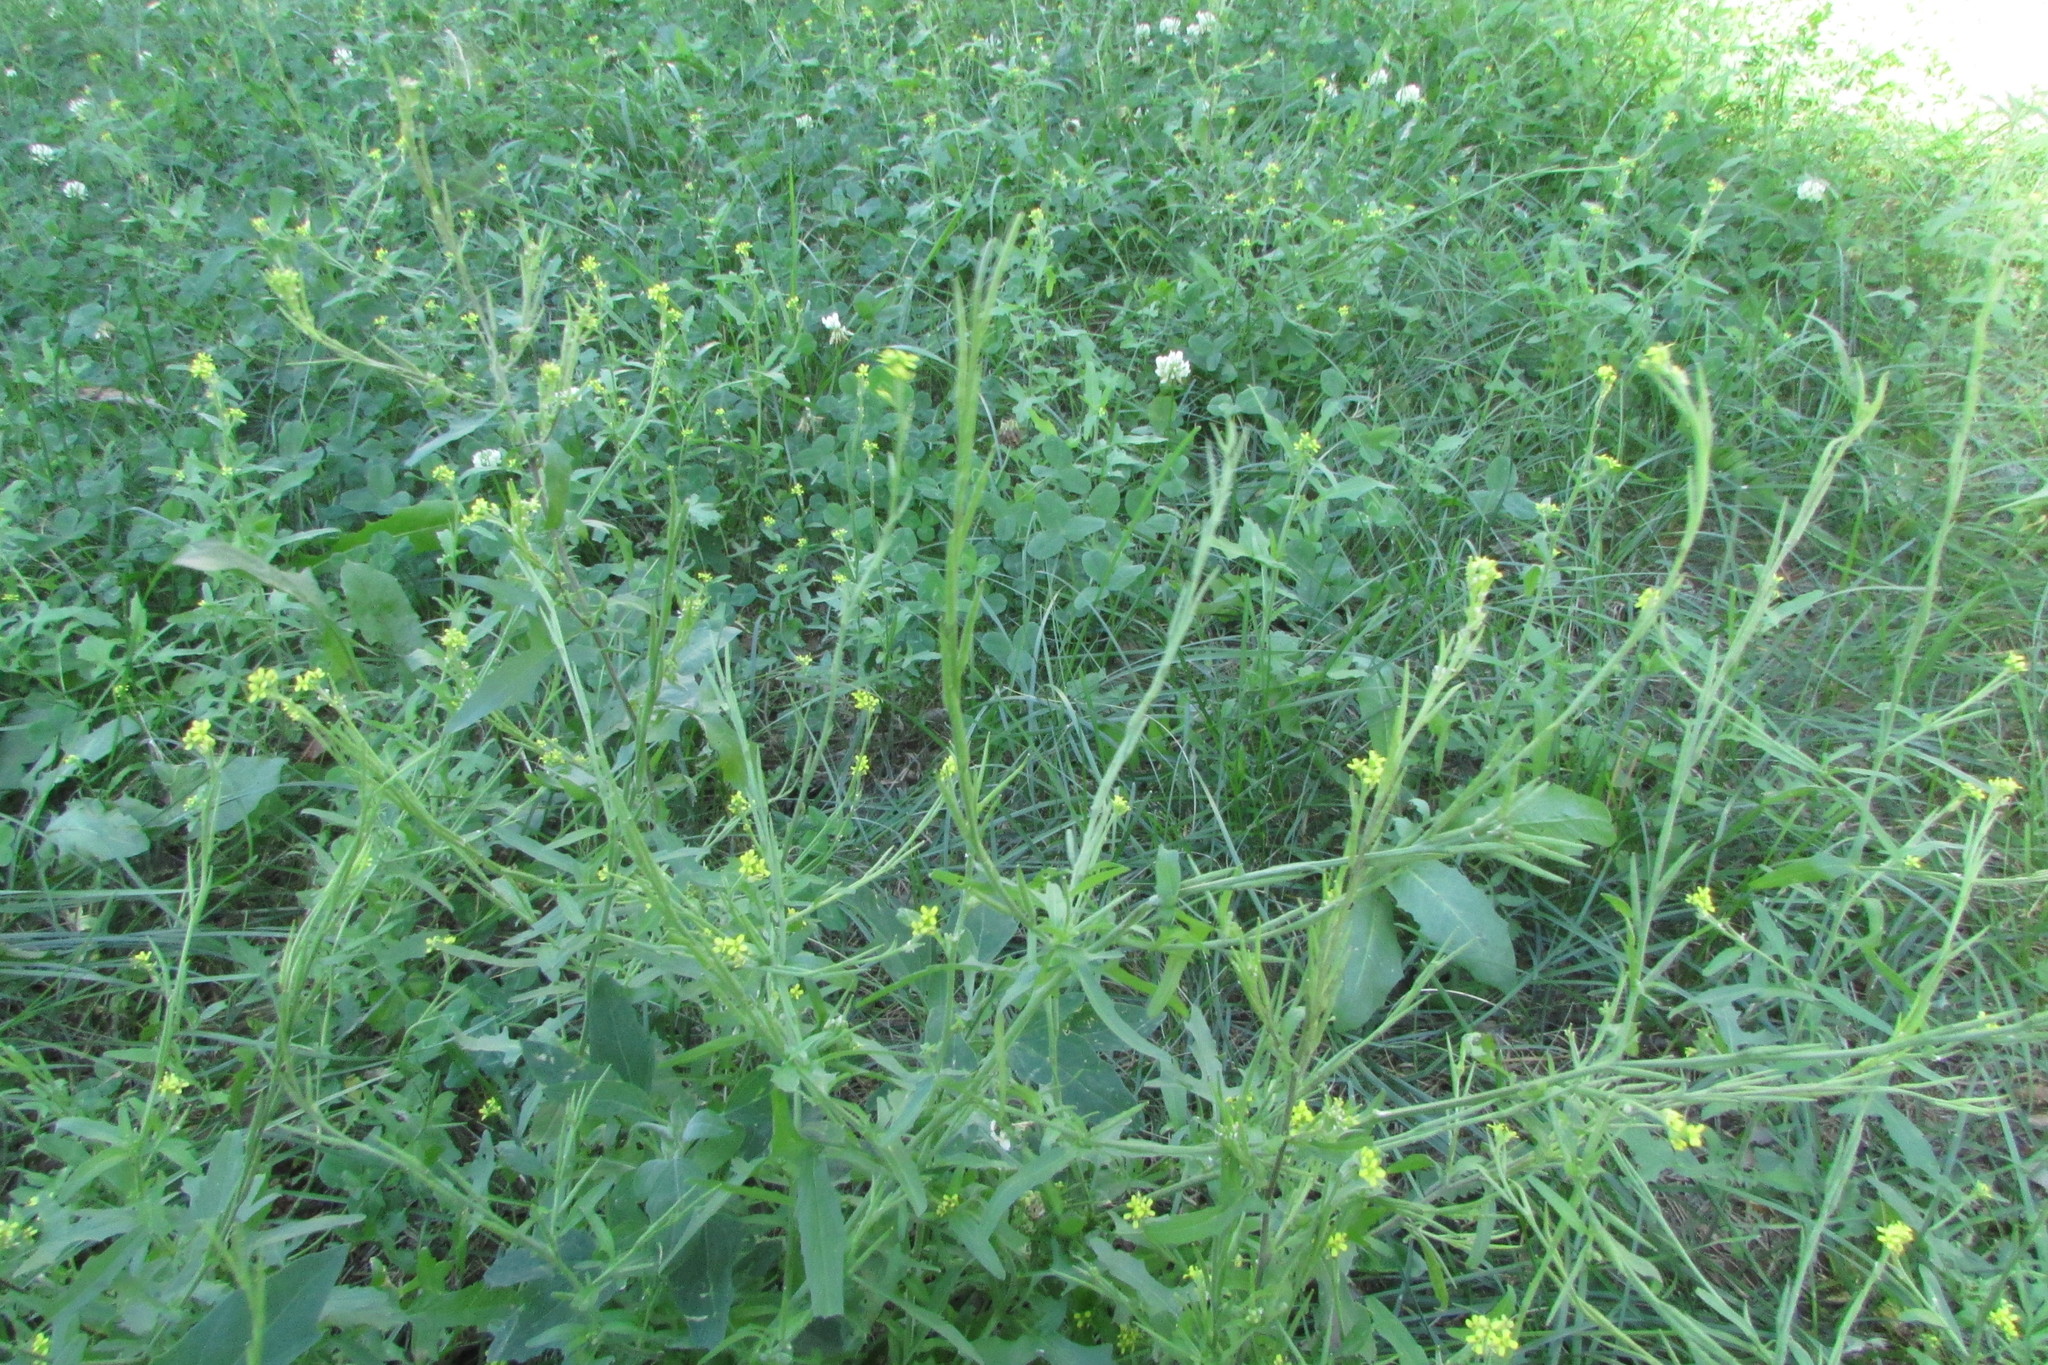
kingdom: Plantae
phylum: Tracheophyta
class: Magnoliopsida
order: Brassicales
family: Brassicaceae
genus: Sisymbrium
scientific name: Sisymbrium officinale
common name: Hedge mustard
